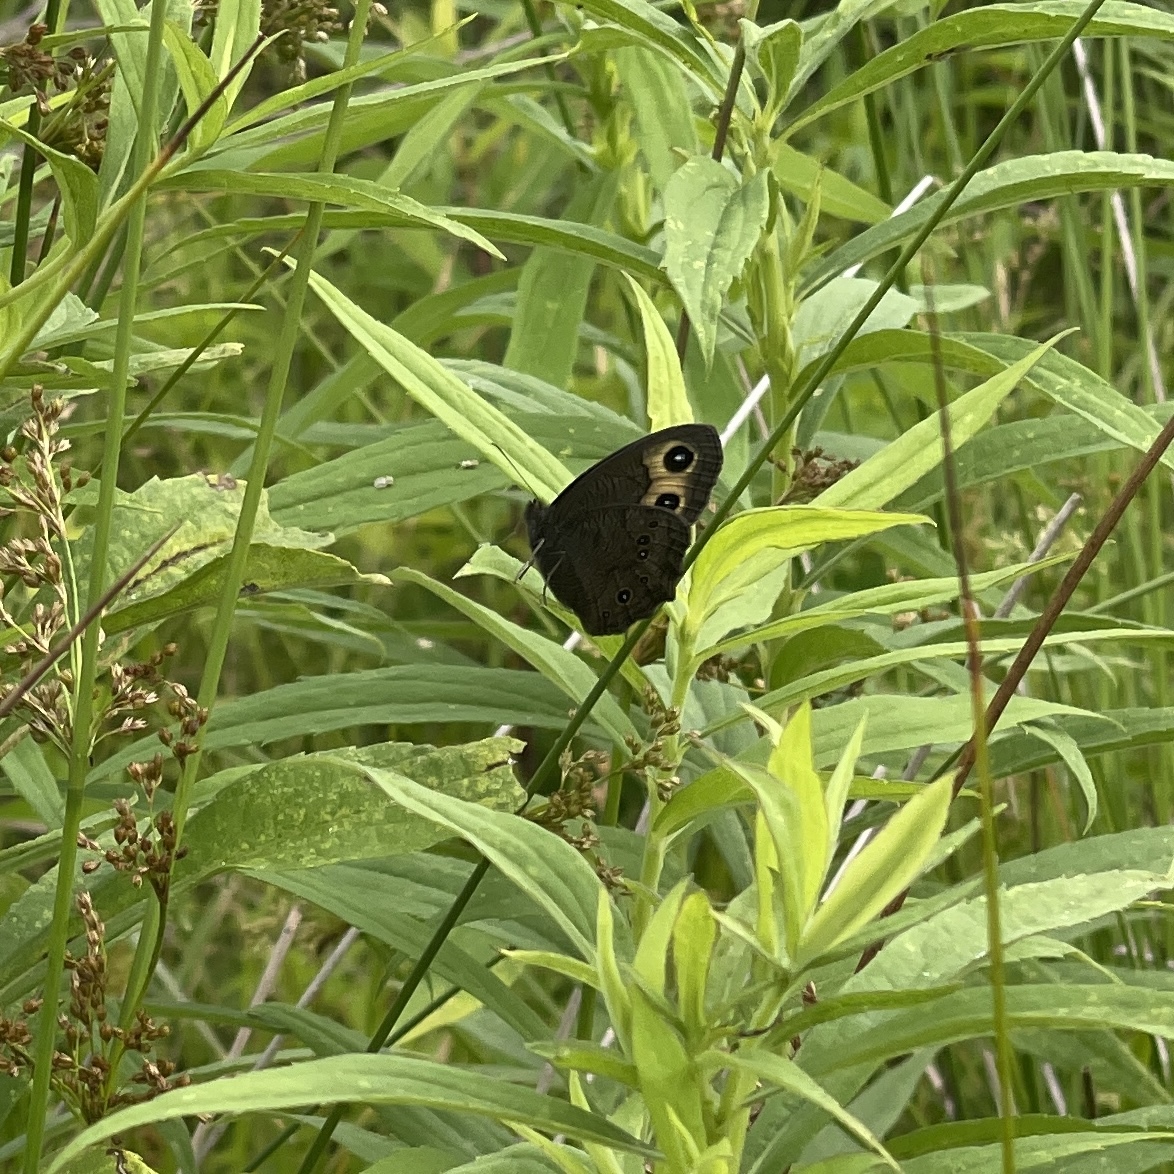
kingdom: Animalia
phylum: Arthropoda
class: Insecta
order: Lepidoptera
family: Nymphalidae
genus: Cercyonis
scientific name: Cercyonis pegala
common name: Common wood-nymph
